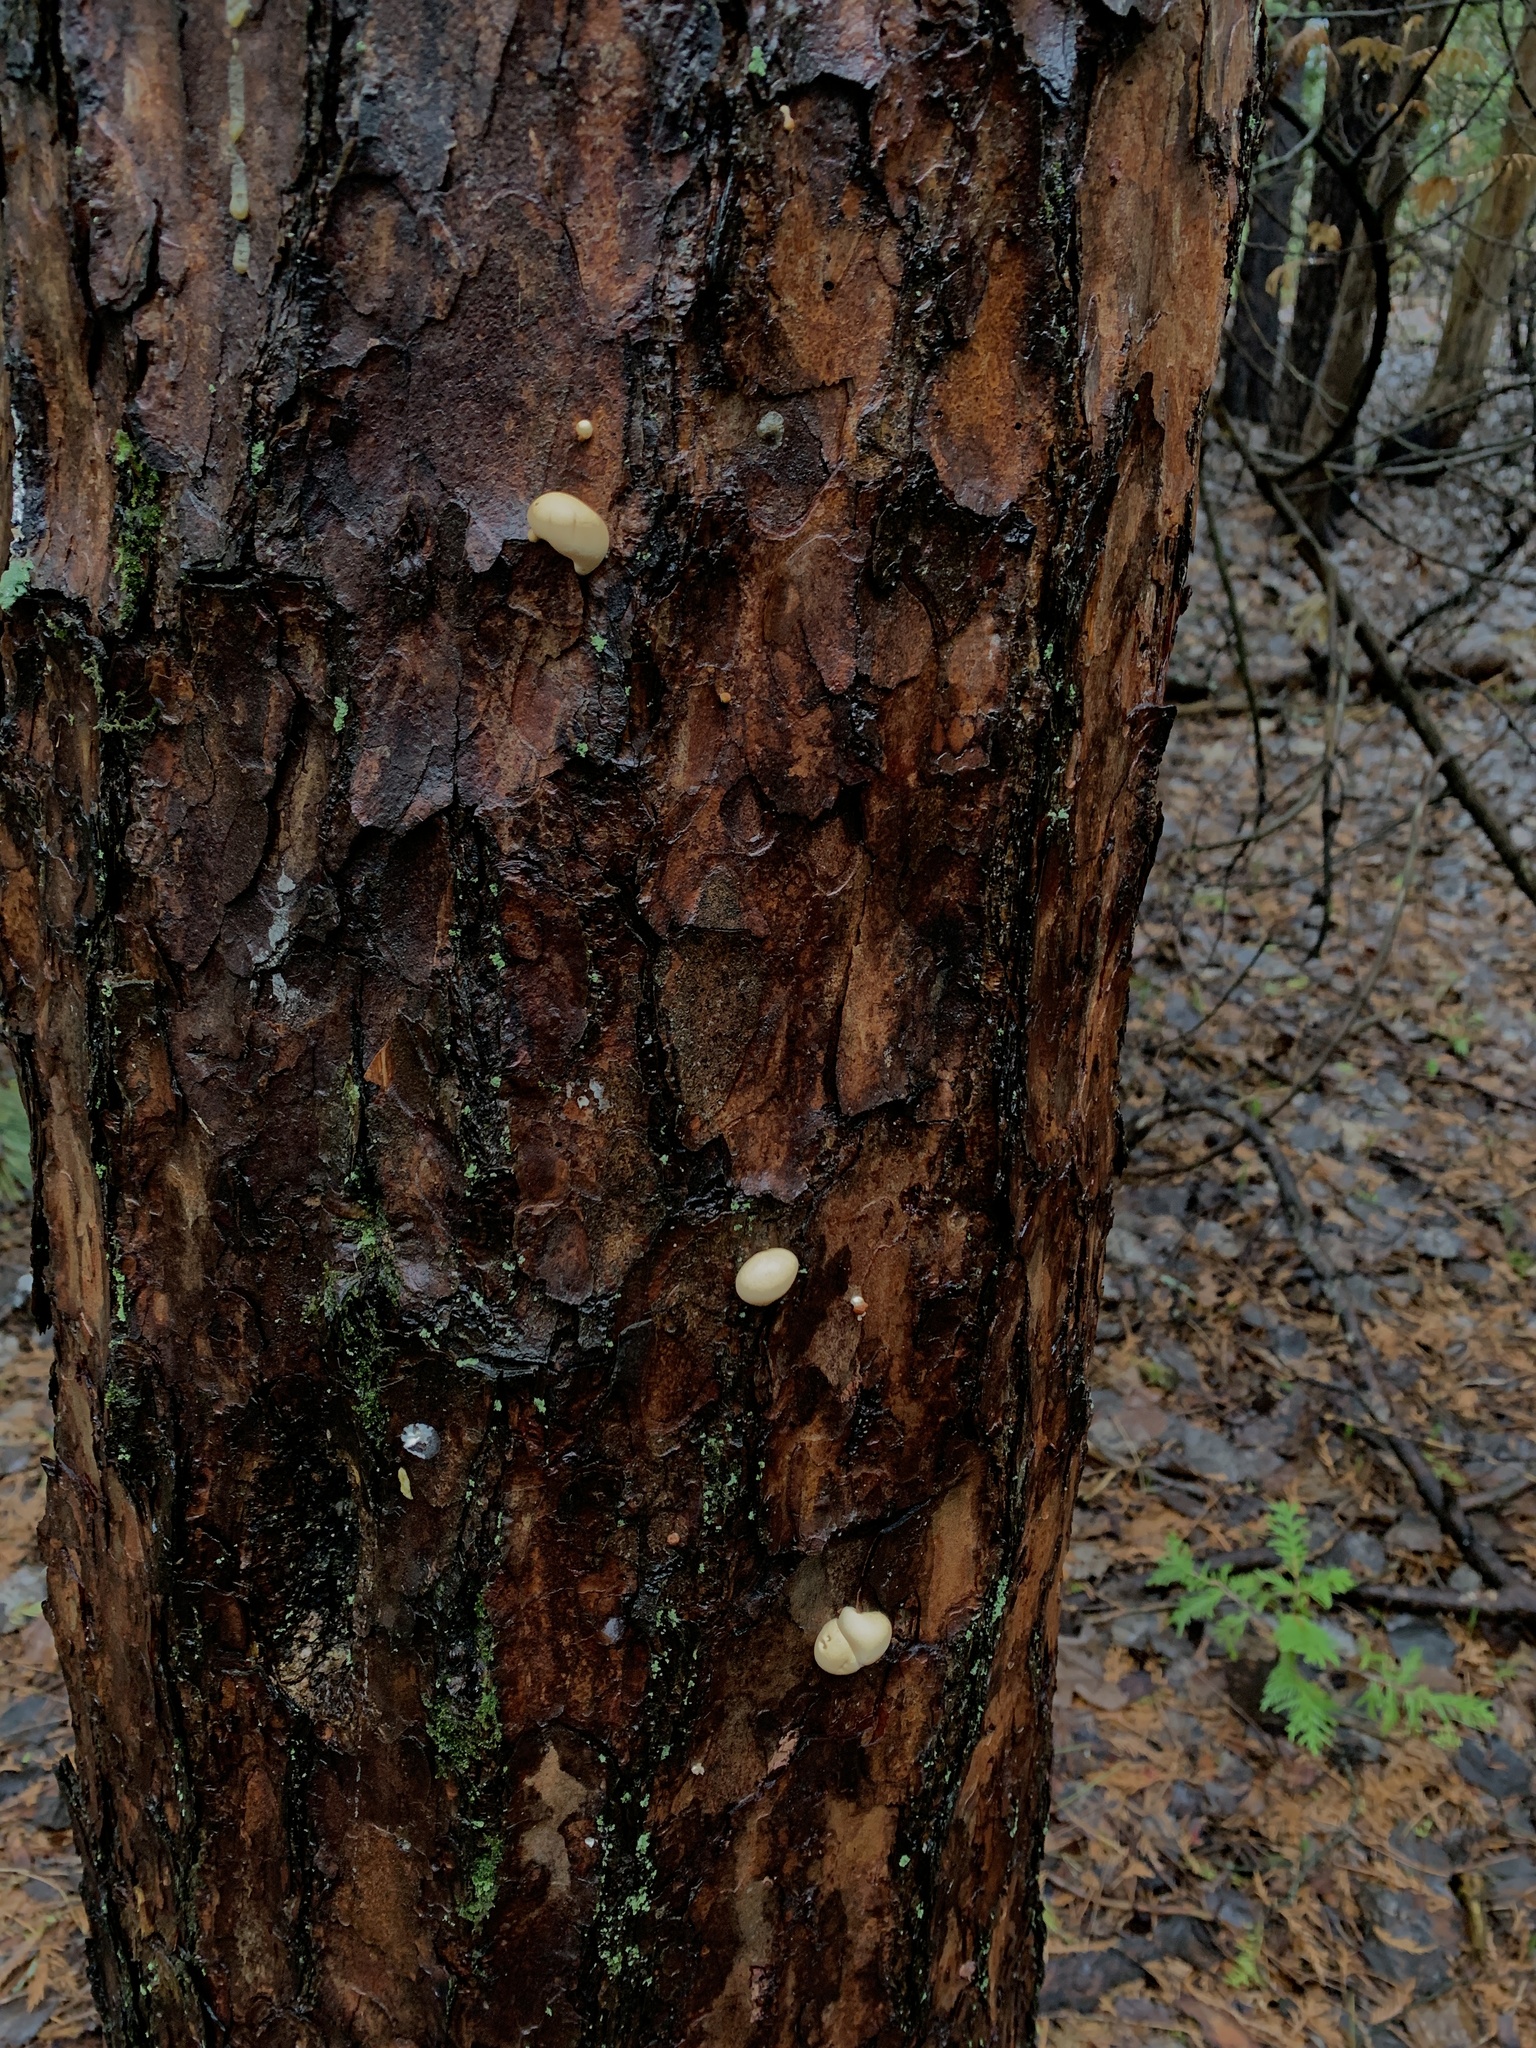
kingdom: Fungi
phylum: Basidiomycota
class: Agaricomycetes
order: Polyporales
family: Polyporaceae
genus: Cryptoporus
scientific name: Cryptoporus volvatus
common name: Veiled polypore
